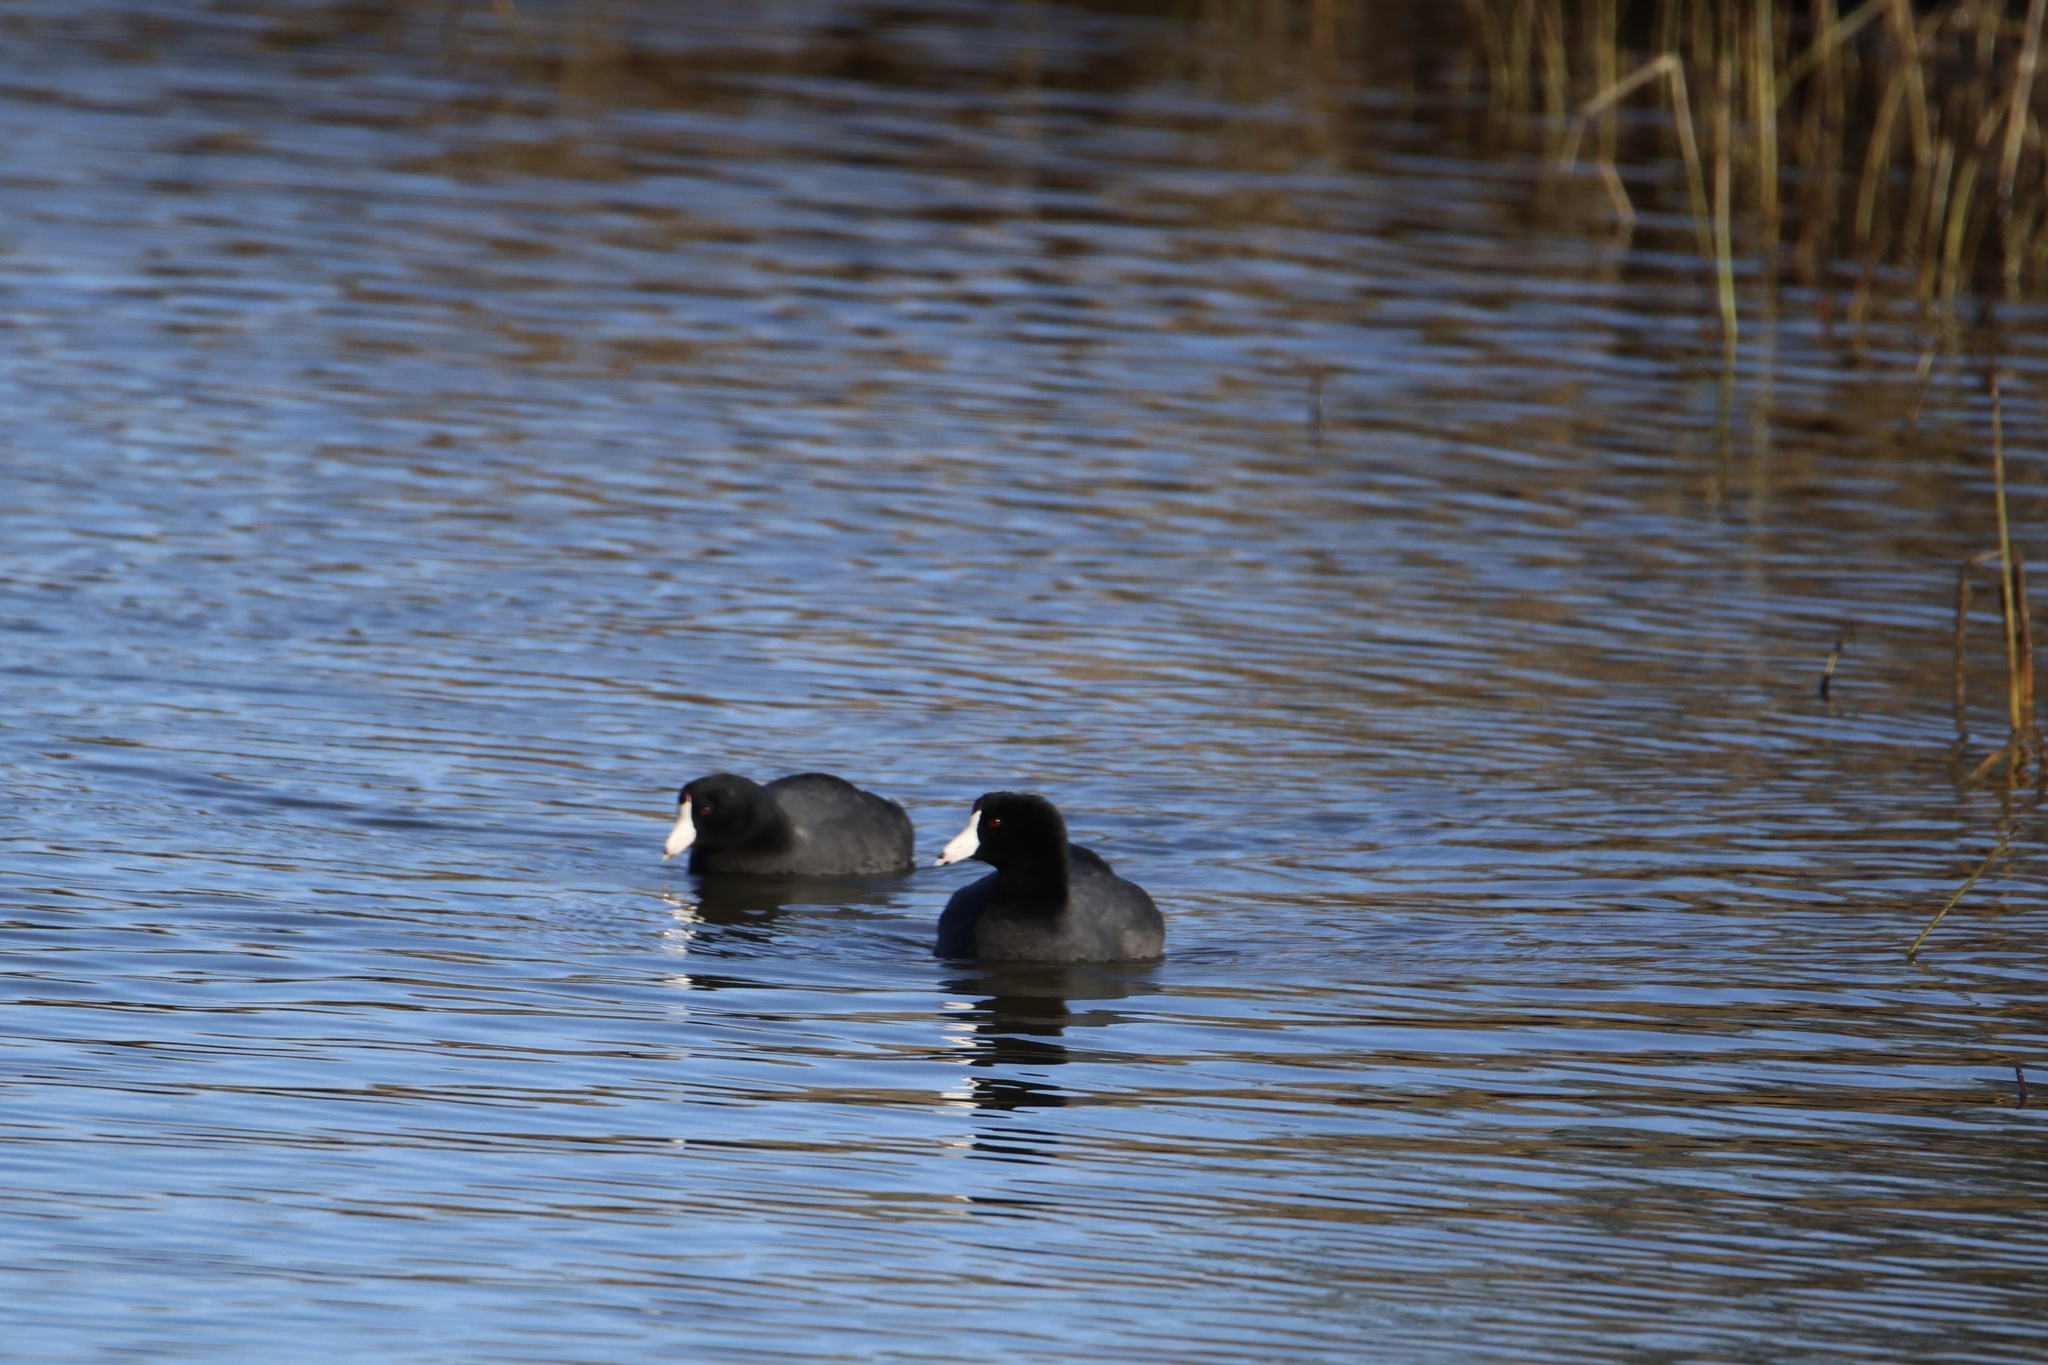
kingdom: Animalia
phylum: Chordata
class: Aves
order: Gruiformes
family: Rallidae
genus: Fulica
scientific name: Fulica americana
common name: American coot
